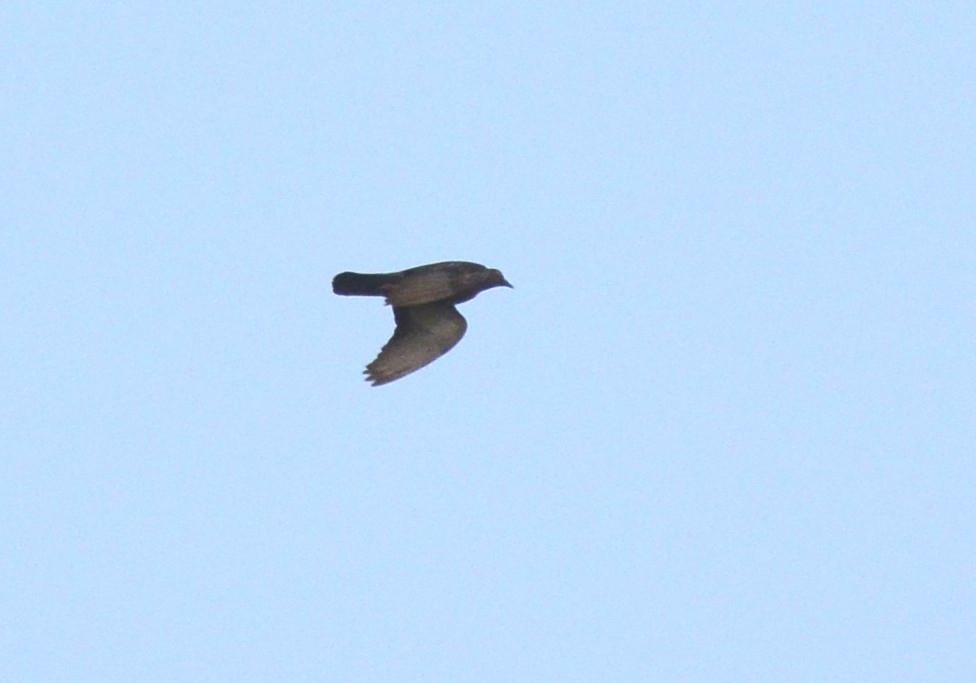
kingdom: Animalia
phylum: Chordata
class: Aves
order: Columbiformes
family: Columbidae
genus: Columba
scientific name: Columba livia
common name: Rock pigeon
